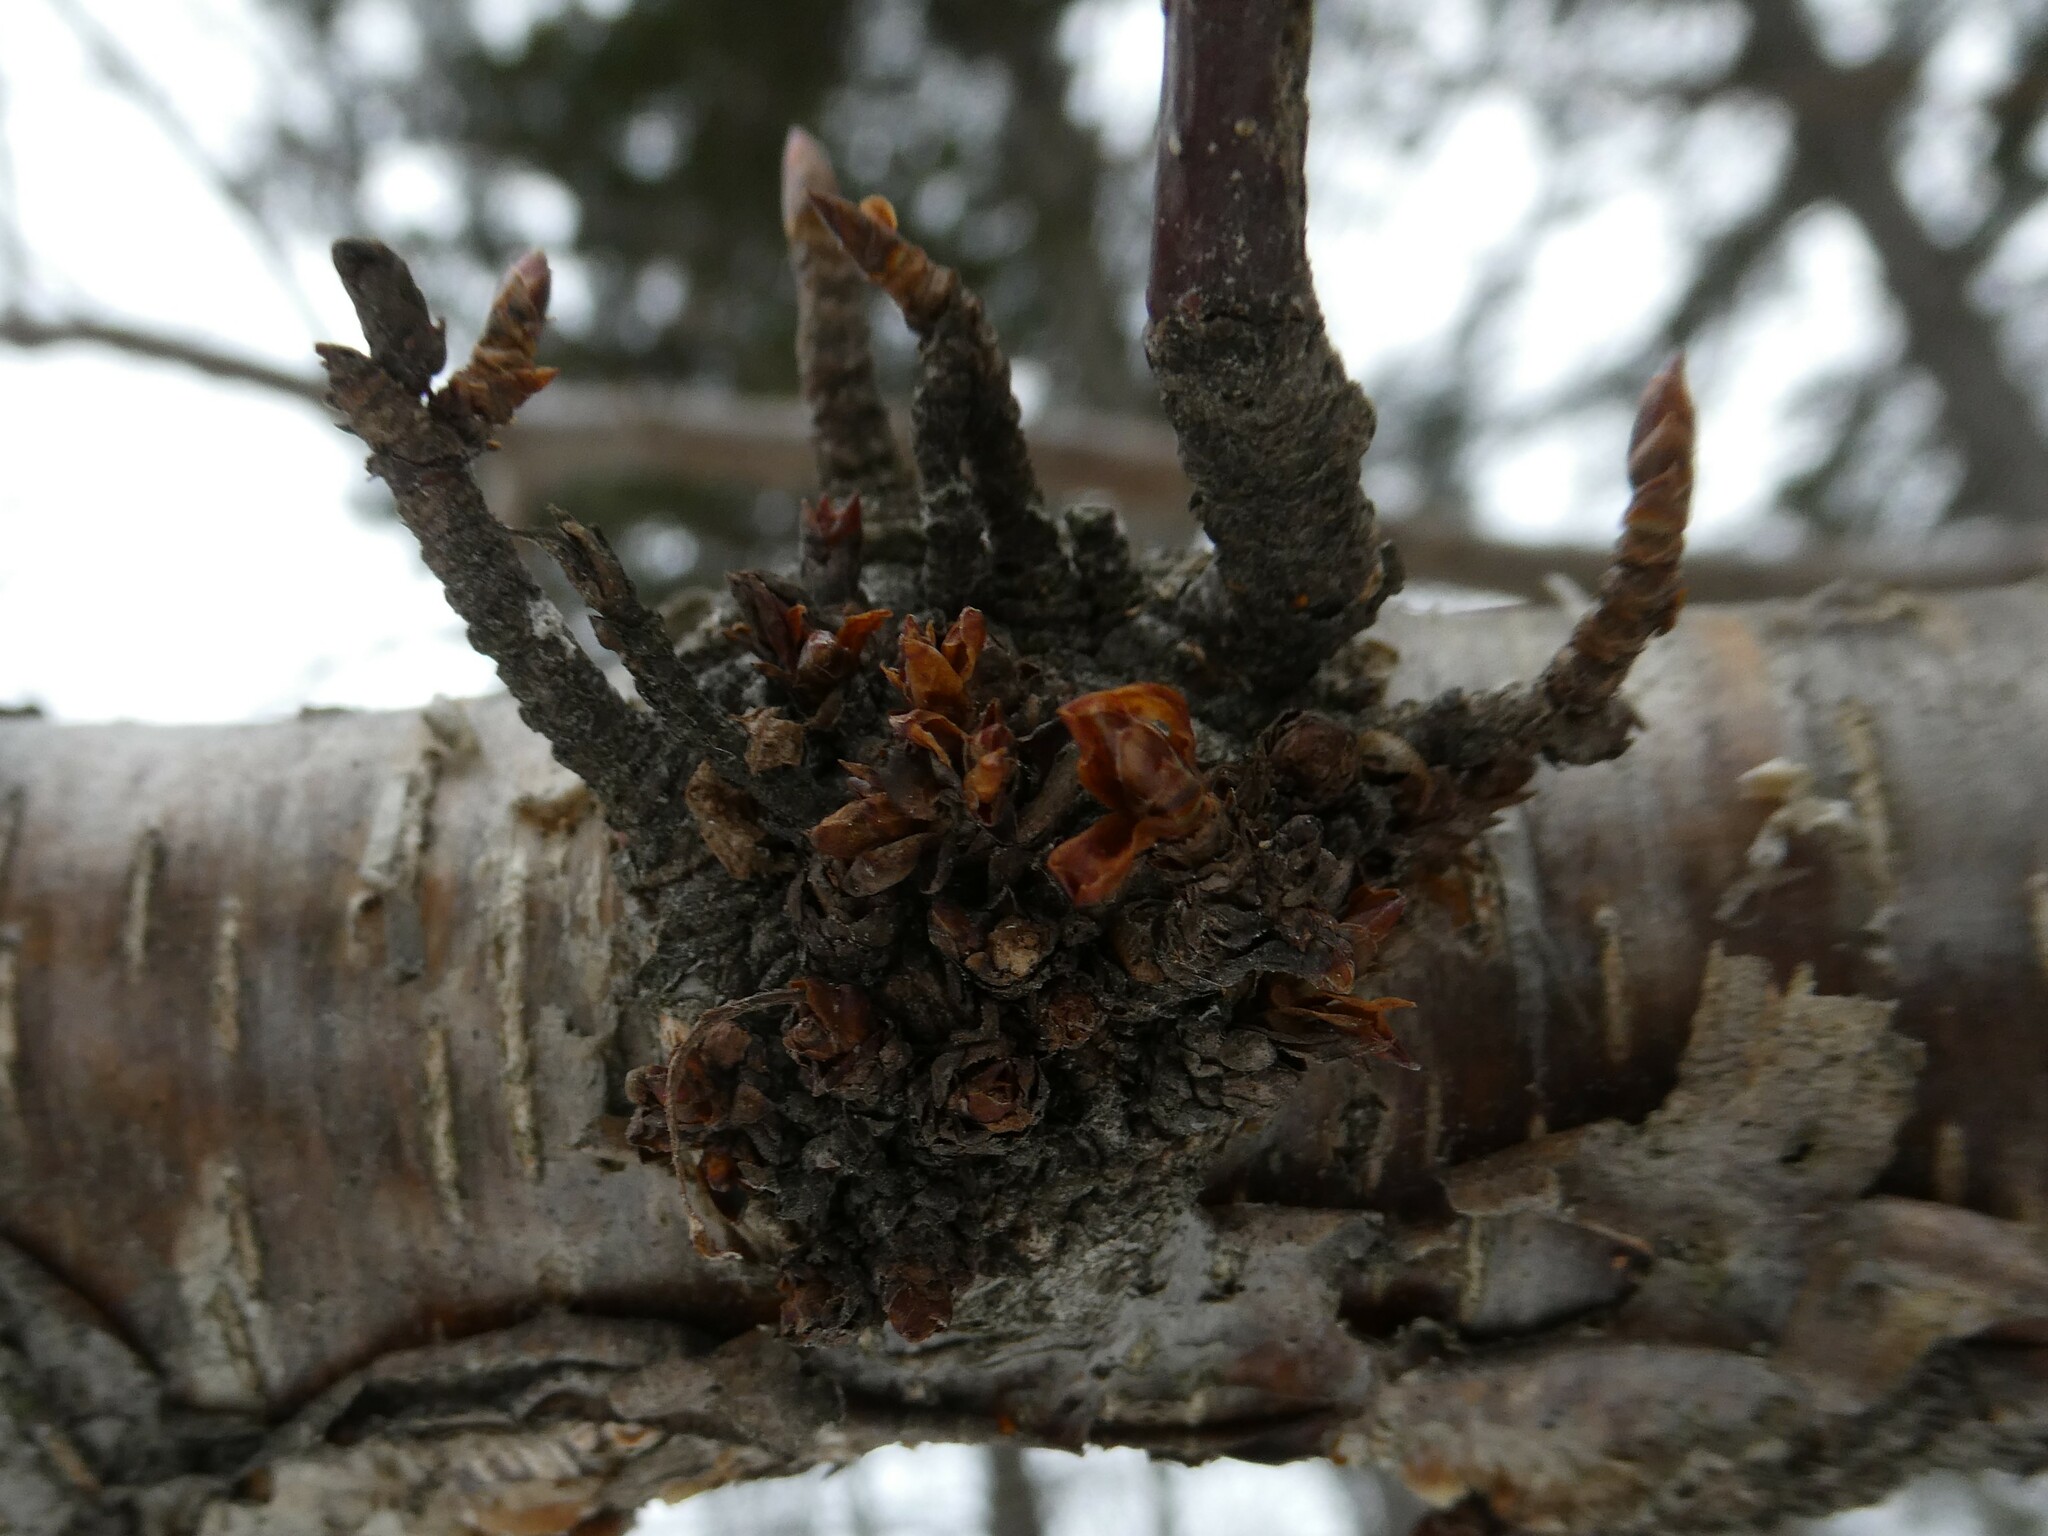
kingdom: Animalia
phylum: Arthropoda
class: Arachnida
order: Trombidiformes
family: Eriophyidae
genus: Eriophyes
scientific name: Eriophyes betulae
